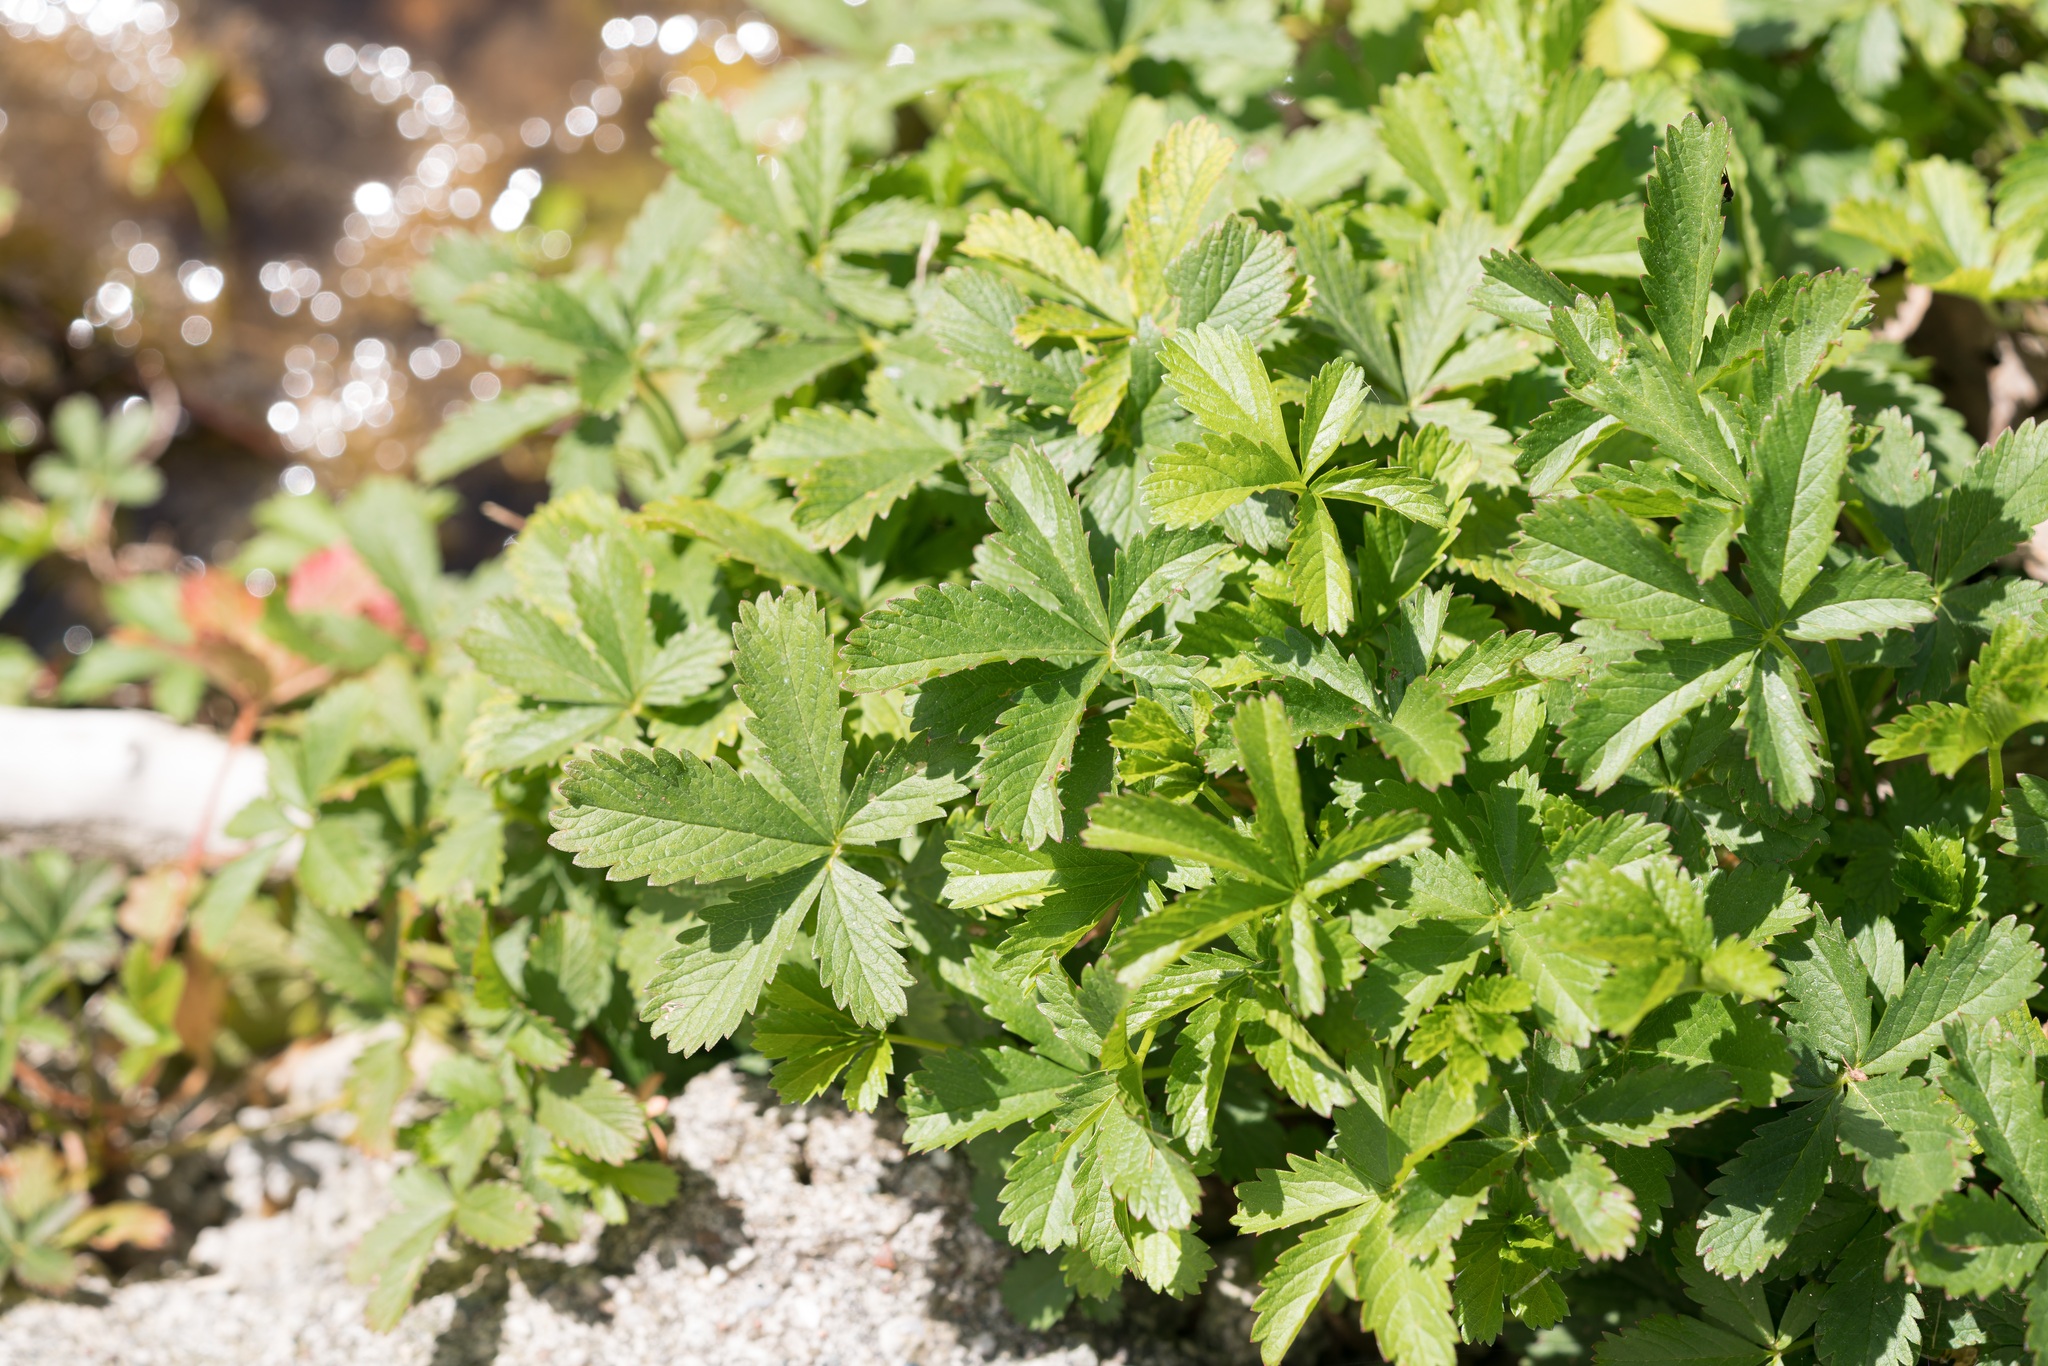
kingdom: Plantae
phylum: Tracheophyta
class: Magnoliopsida
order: Rosales
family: Rosaceae
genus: Potentilla
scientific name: Potentilla reptans
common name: Creeping cinquefoil
